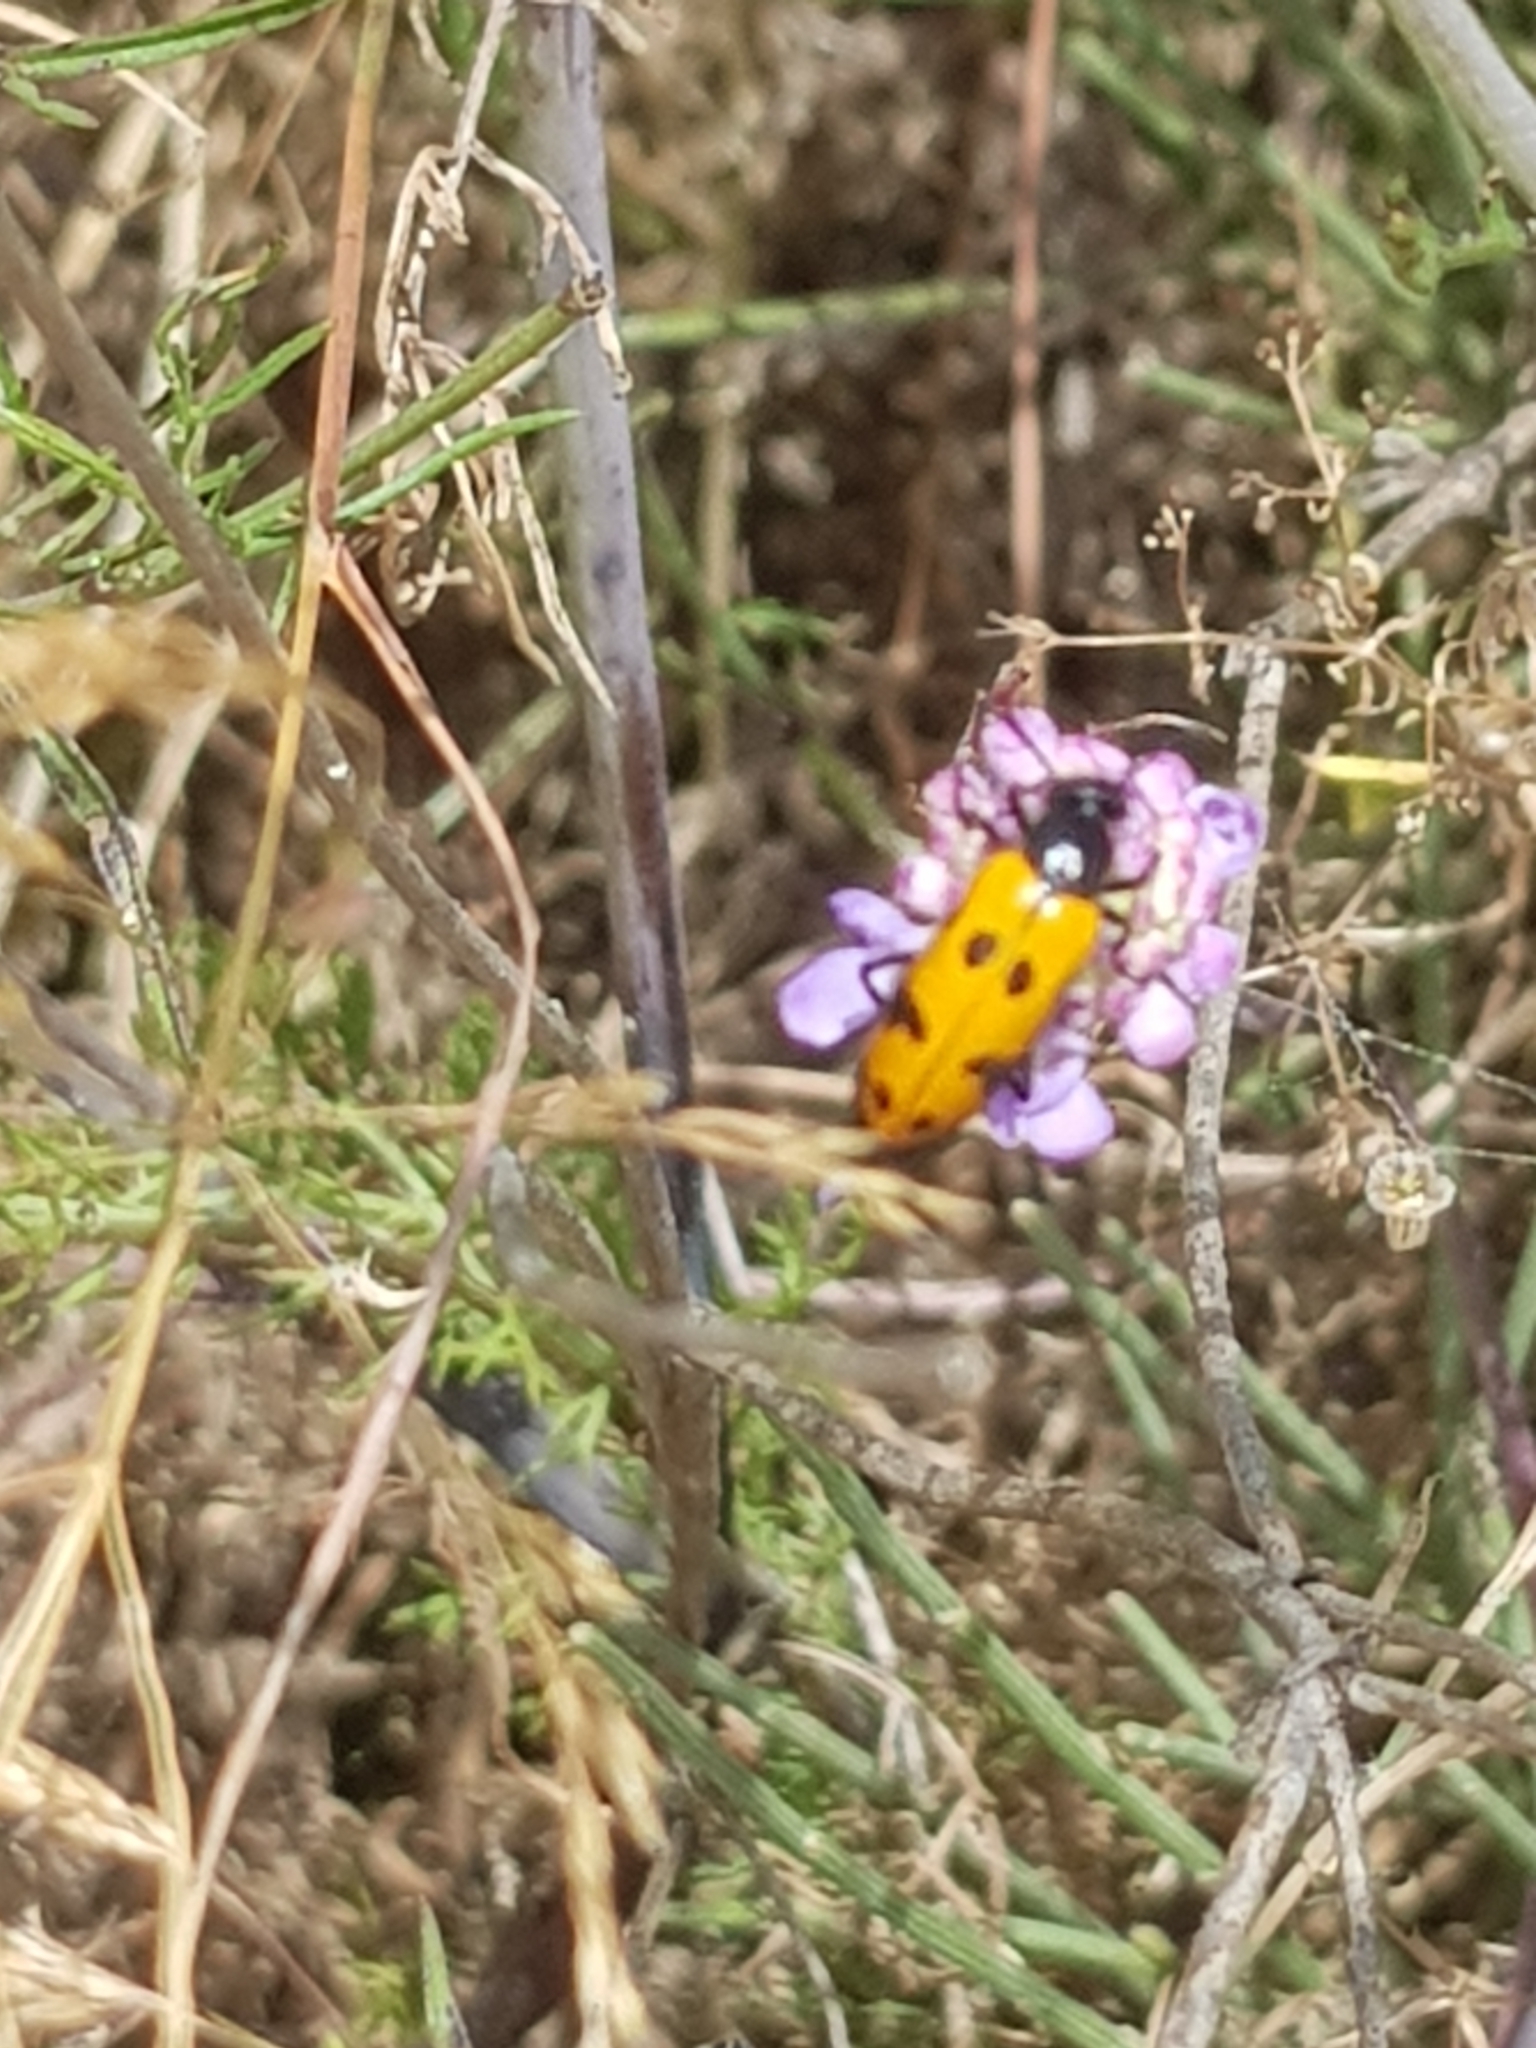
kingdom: Animalia
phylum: Arthropoda
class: Insecta
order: Coleoptera
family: Meloidae
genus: Mylabris
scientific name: Mylabris connata
